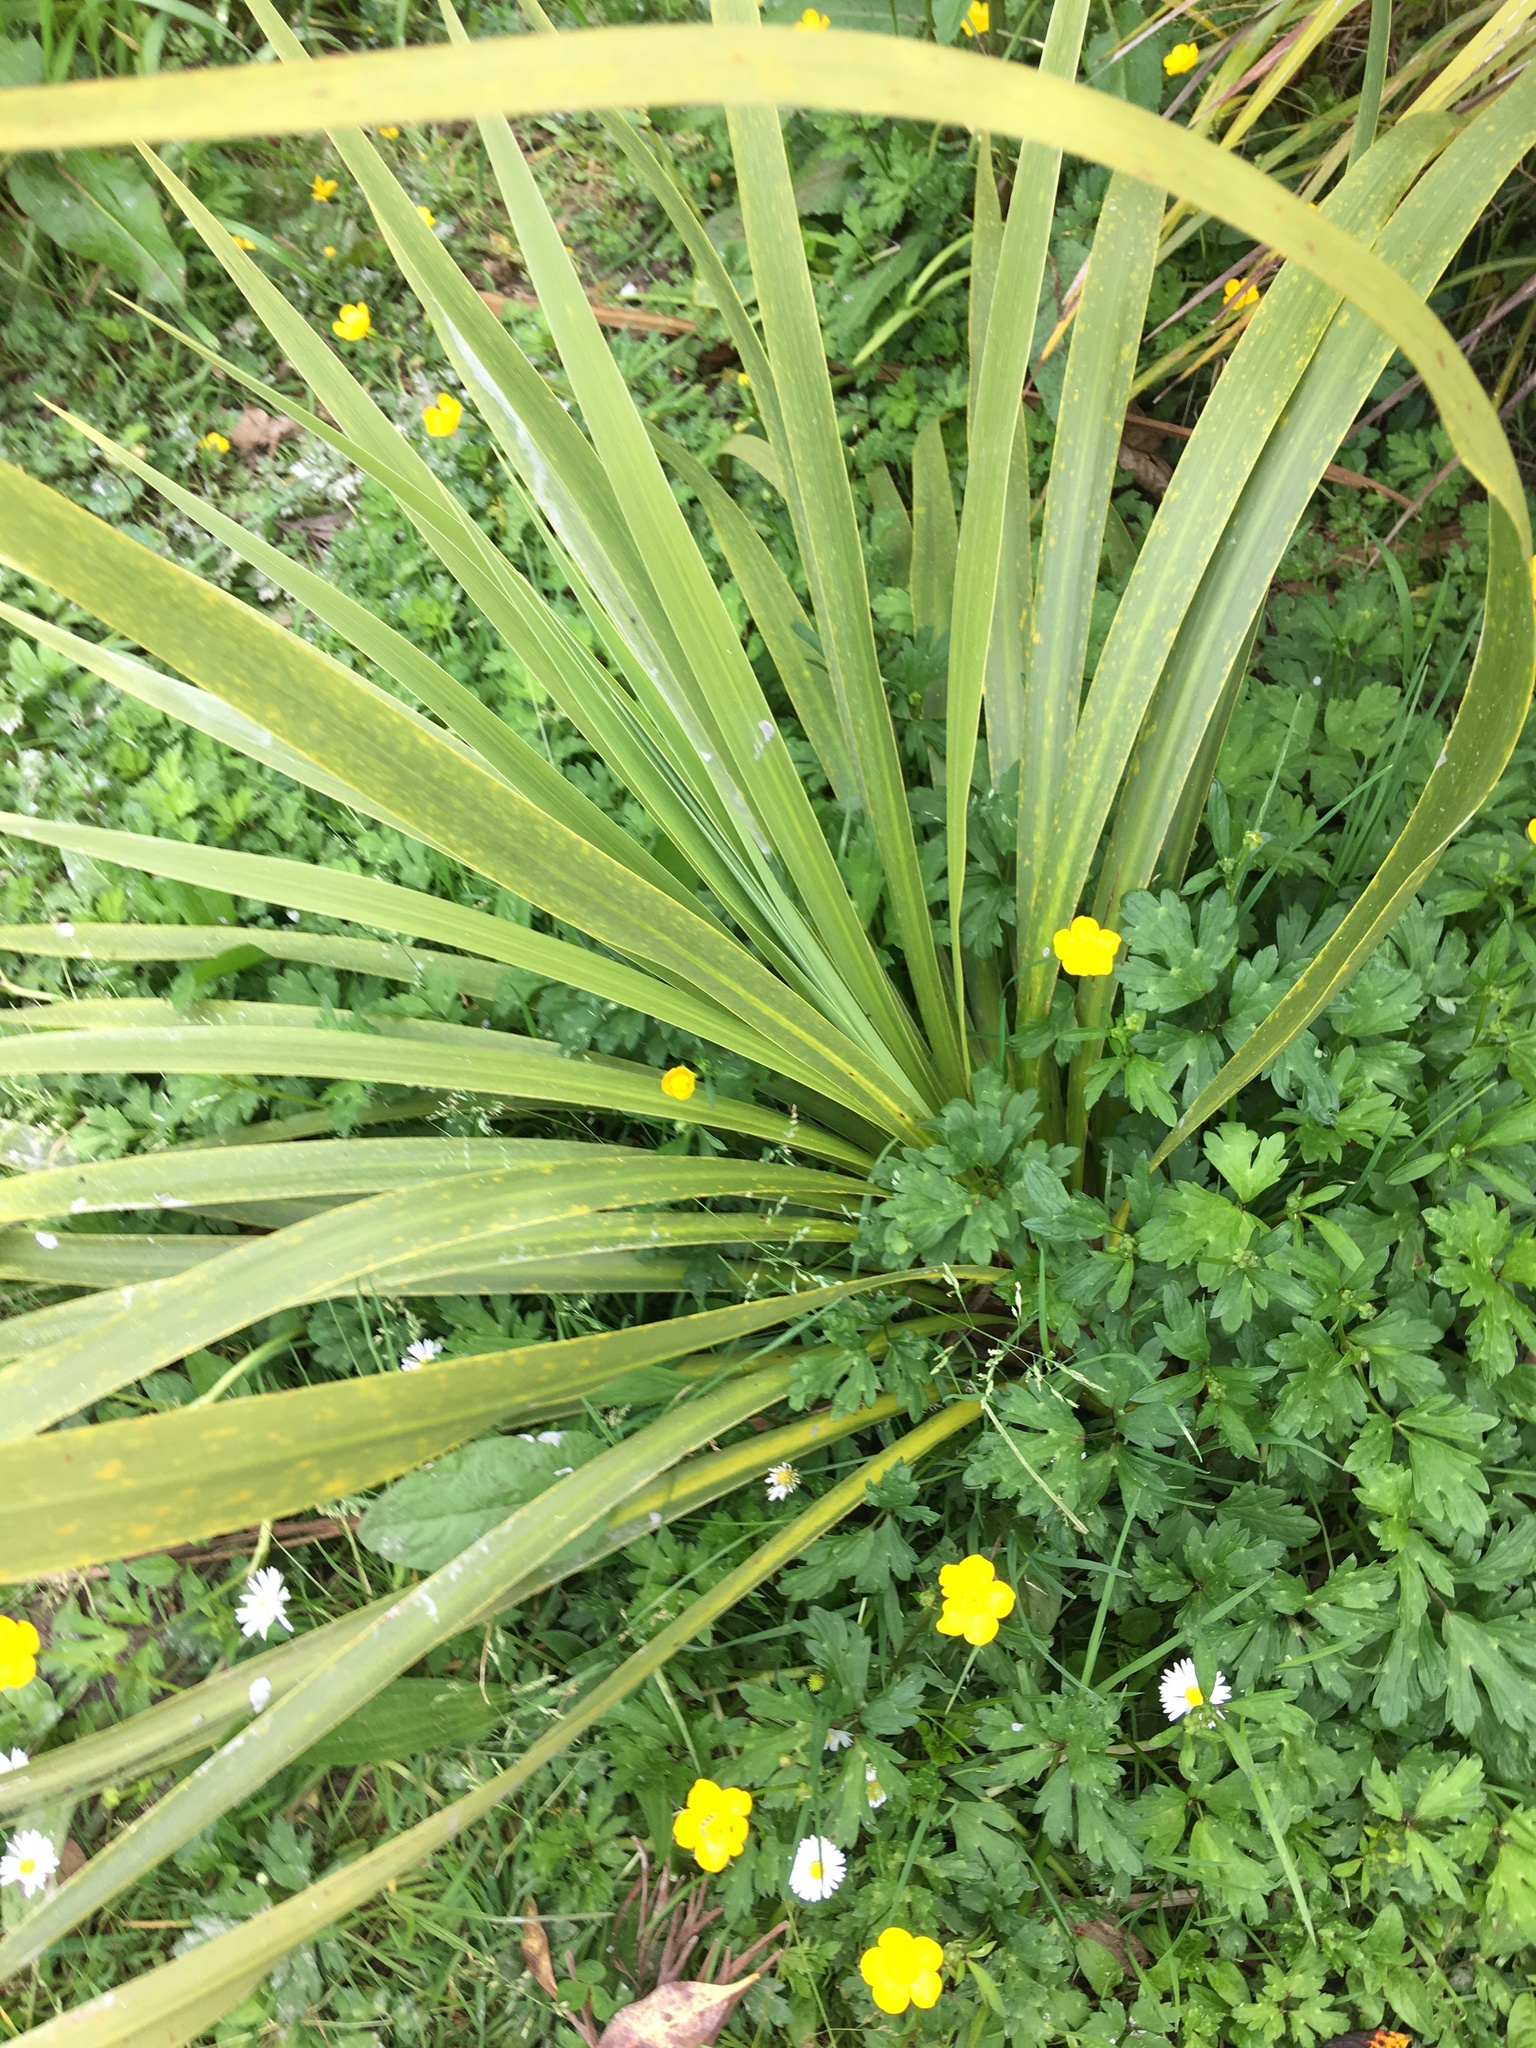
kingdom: Plantae
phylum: Tracheophyta
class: Liliopsida
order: Asparagales
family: Asparagaceae
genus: Cordyline
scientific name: Cordyline australis
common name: Cabbage-palm
